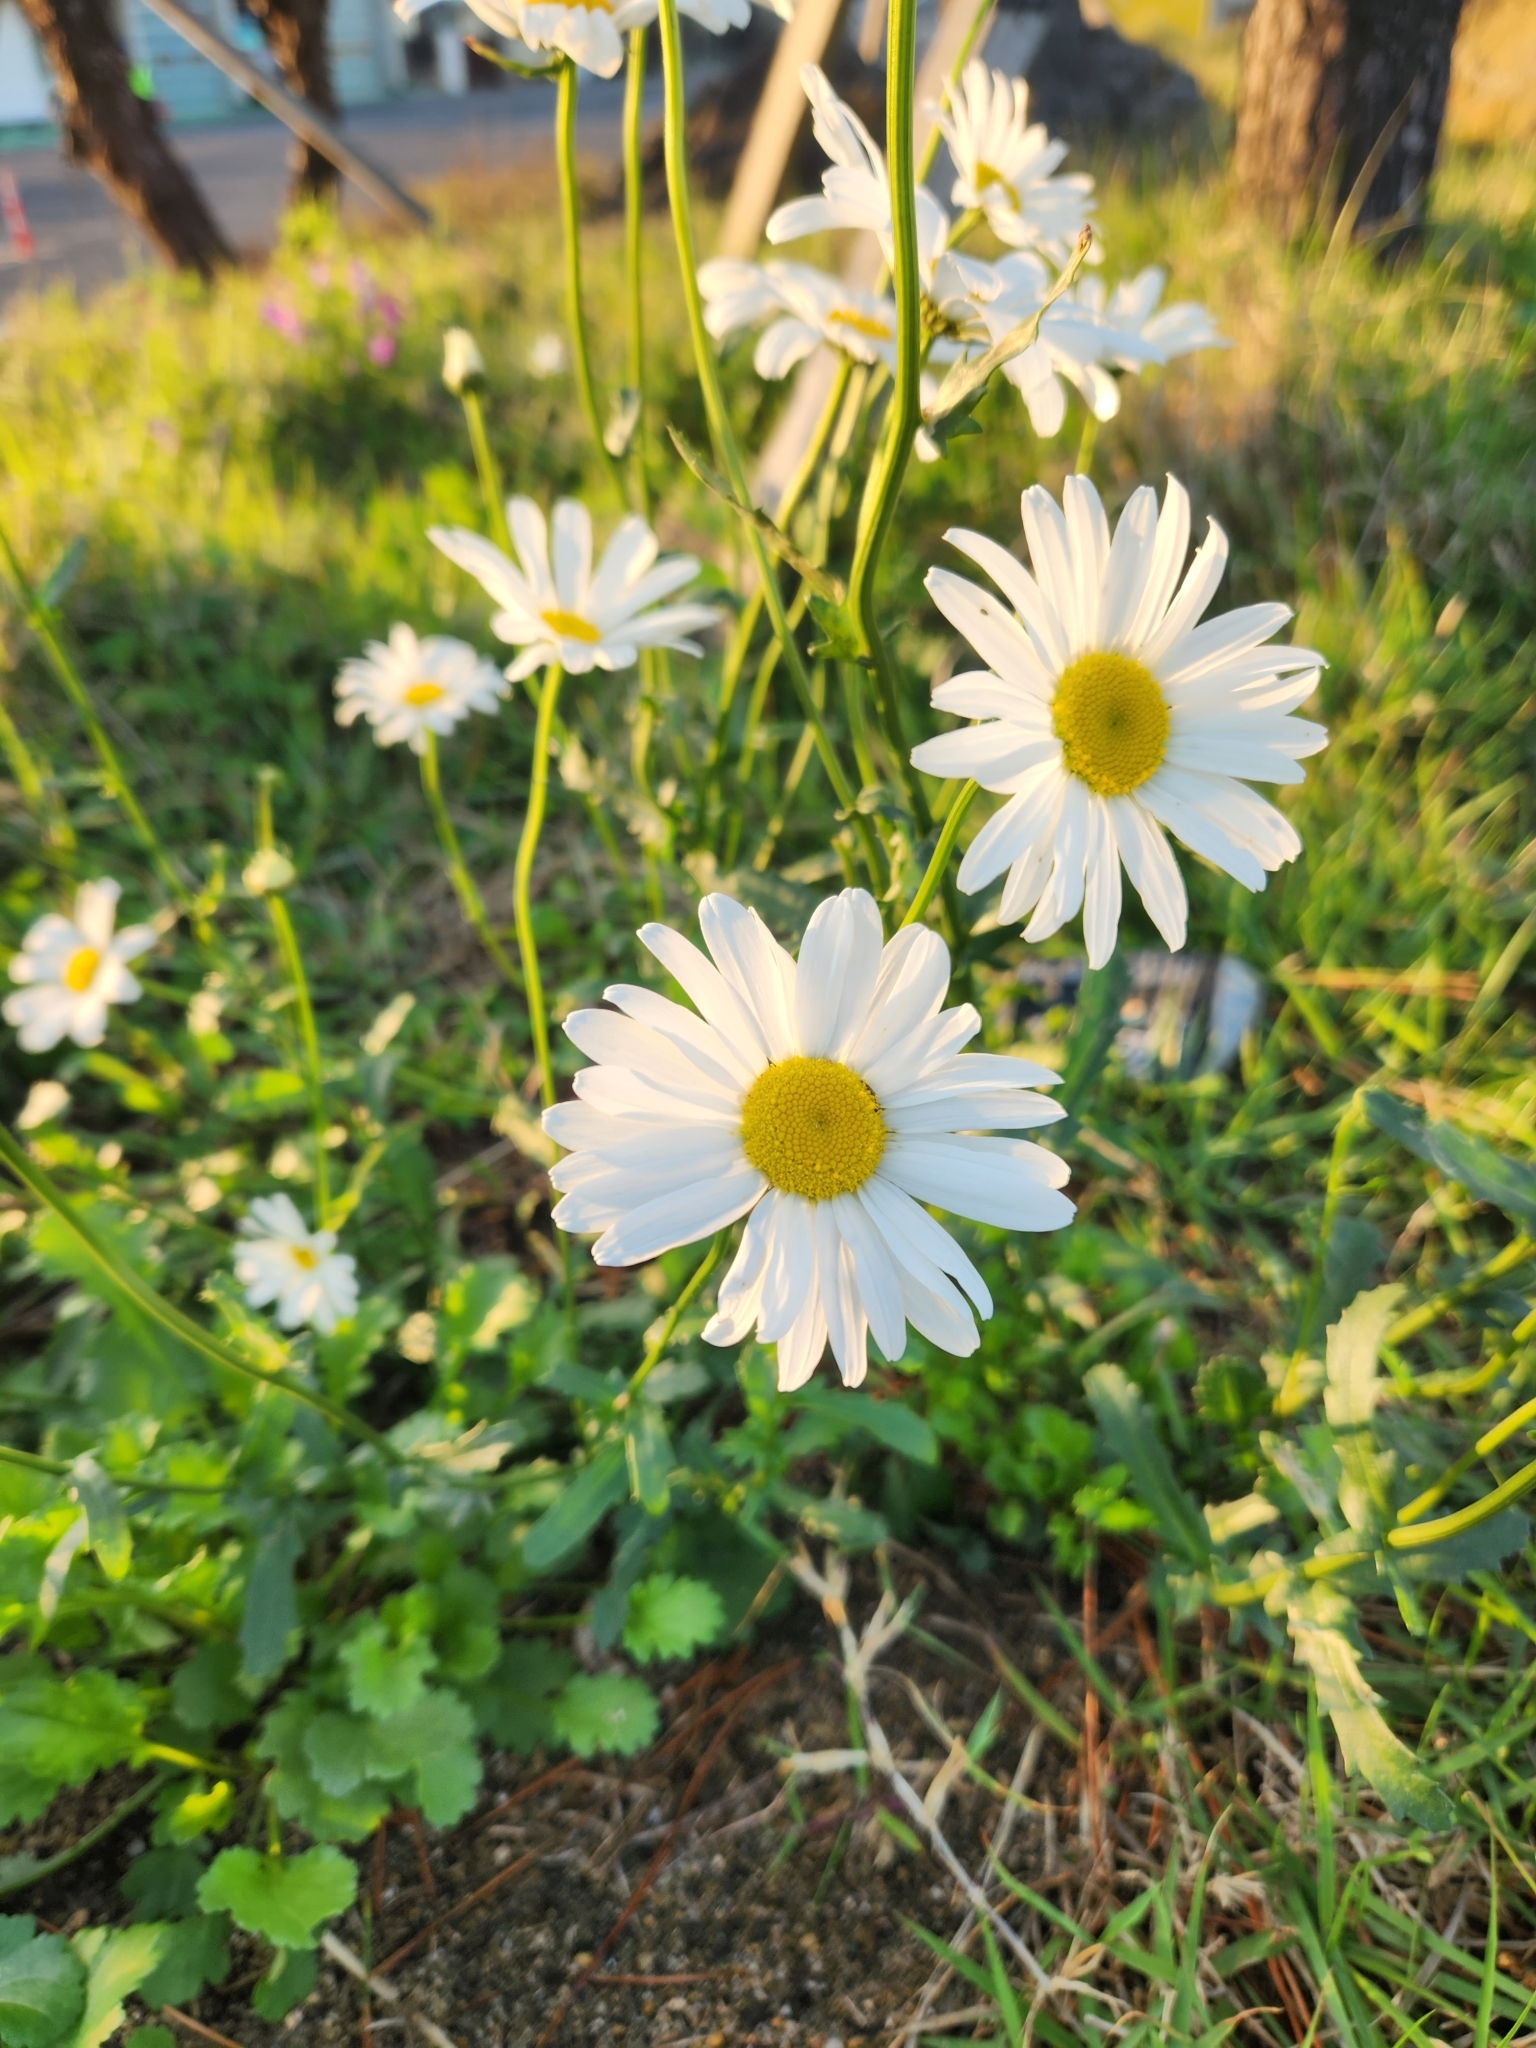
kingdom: Plantae
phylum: Tracheophyta
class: Magnoliopsida
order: Asterales
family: Asteraceae
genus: Leucanthemum
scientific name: Leucanthemum vulgare
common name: Oxeye daisy
